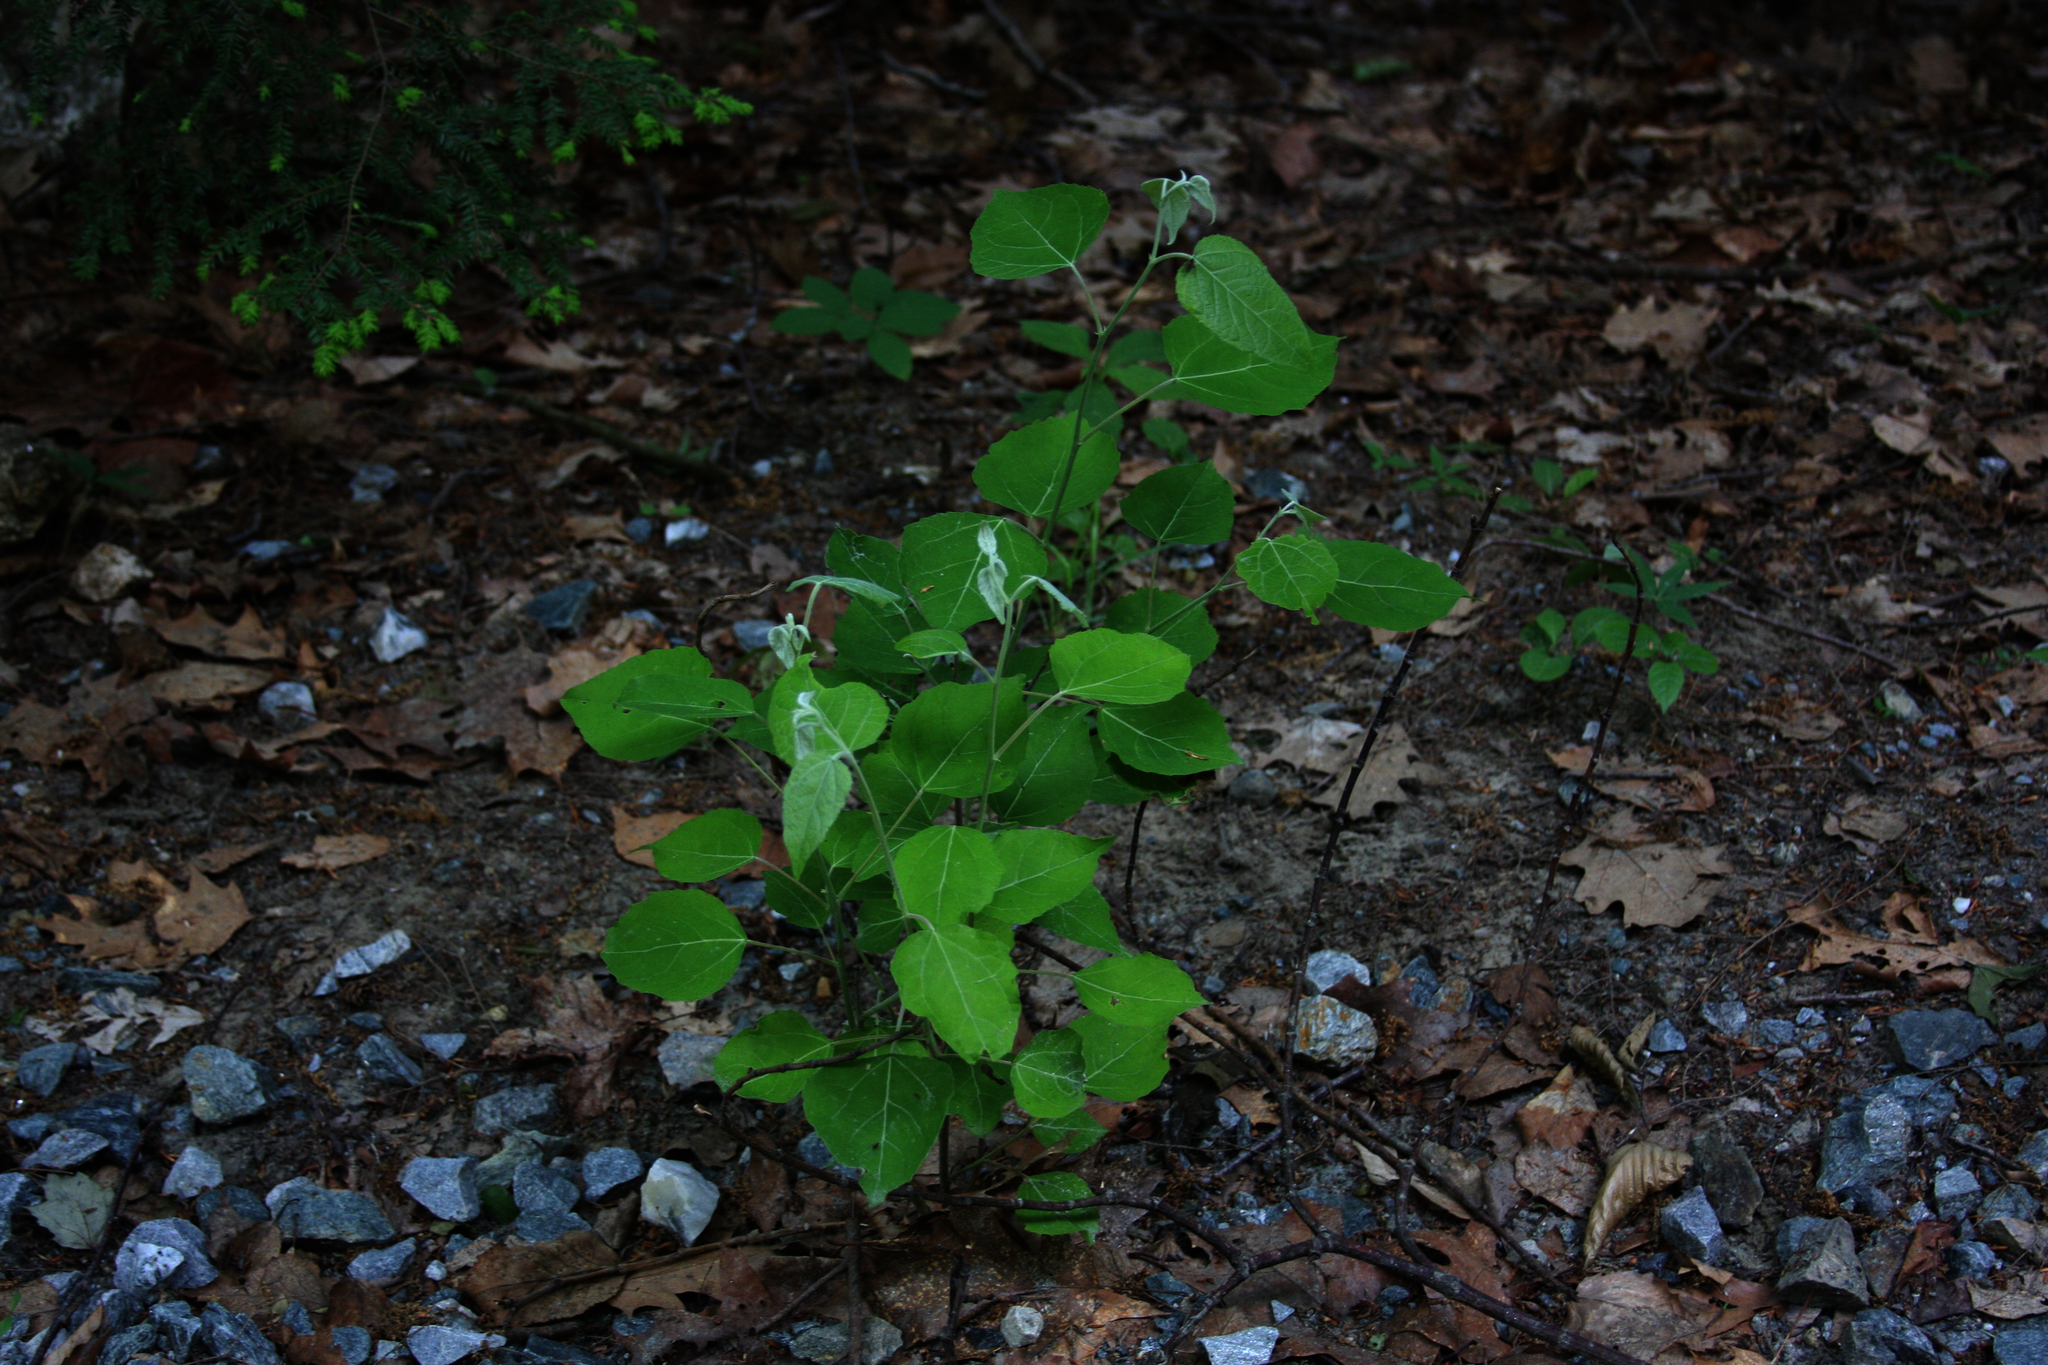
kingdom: Plantae
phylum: Tracheophyta
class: Pinopsida
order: Pinales
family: Pinaceae
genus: Tsuga
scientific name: Tsuga canadensis
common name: Eastern hemlock
